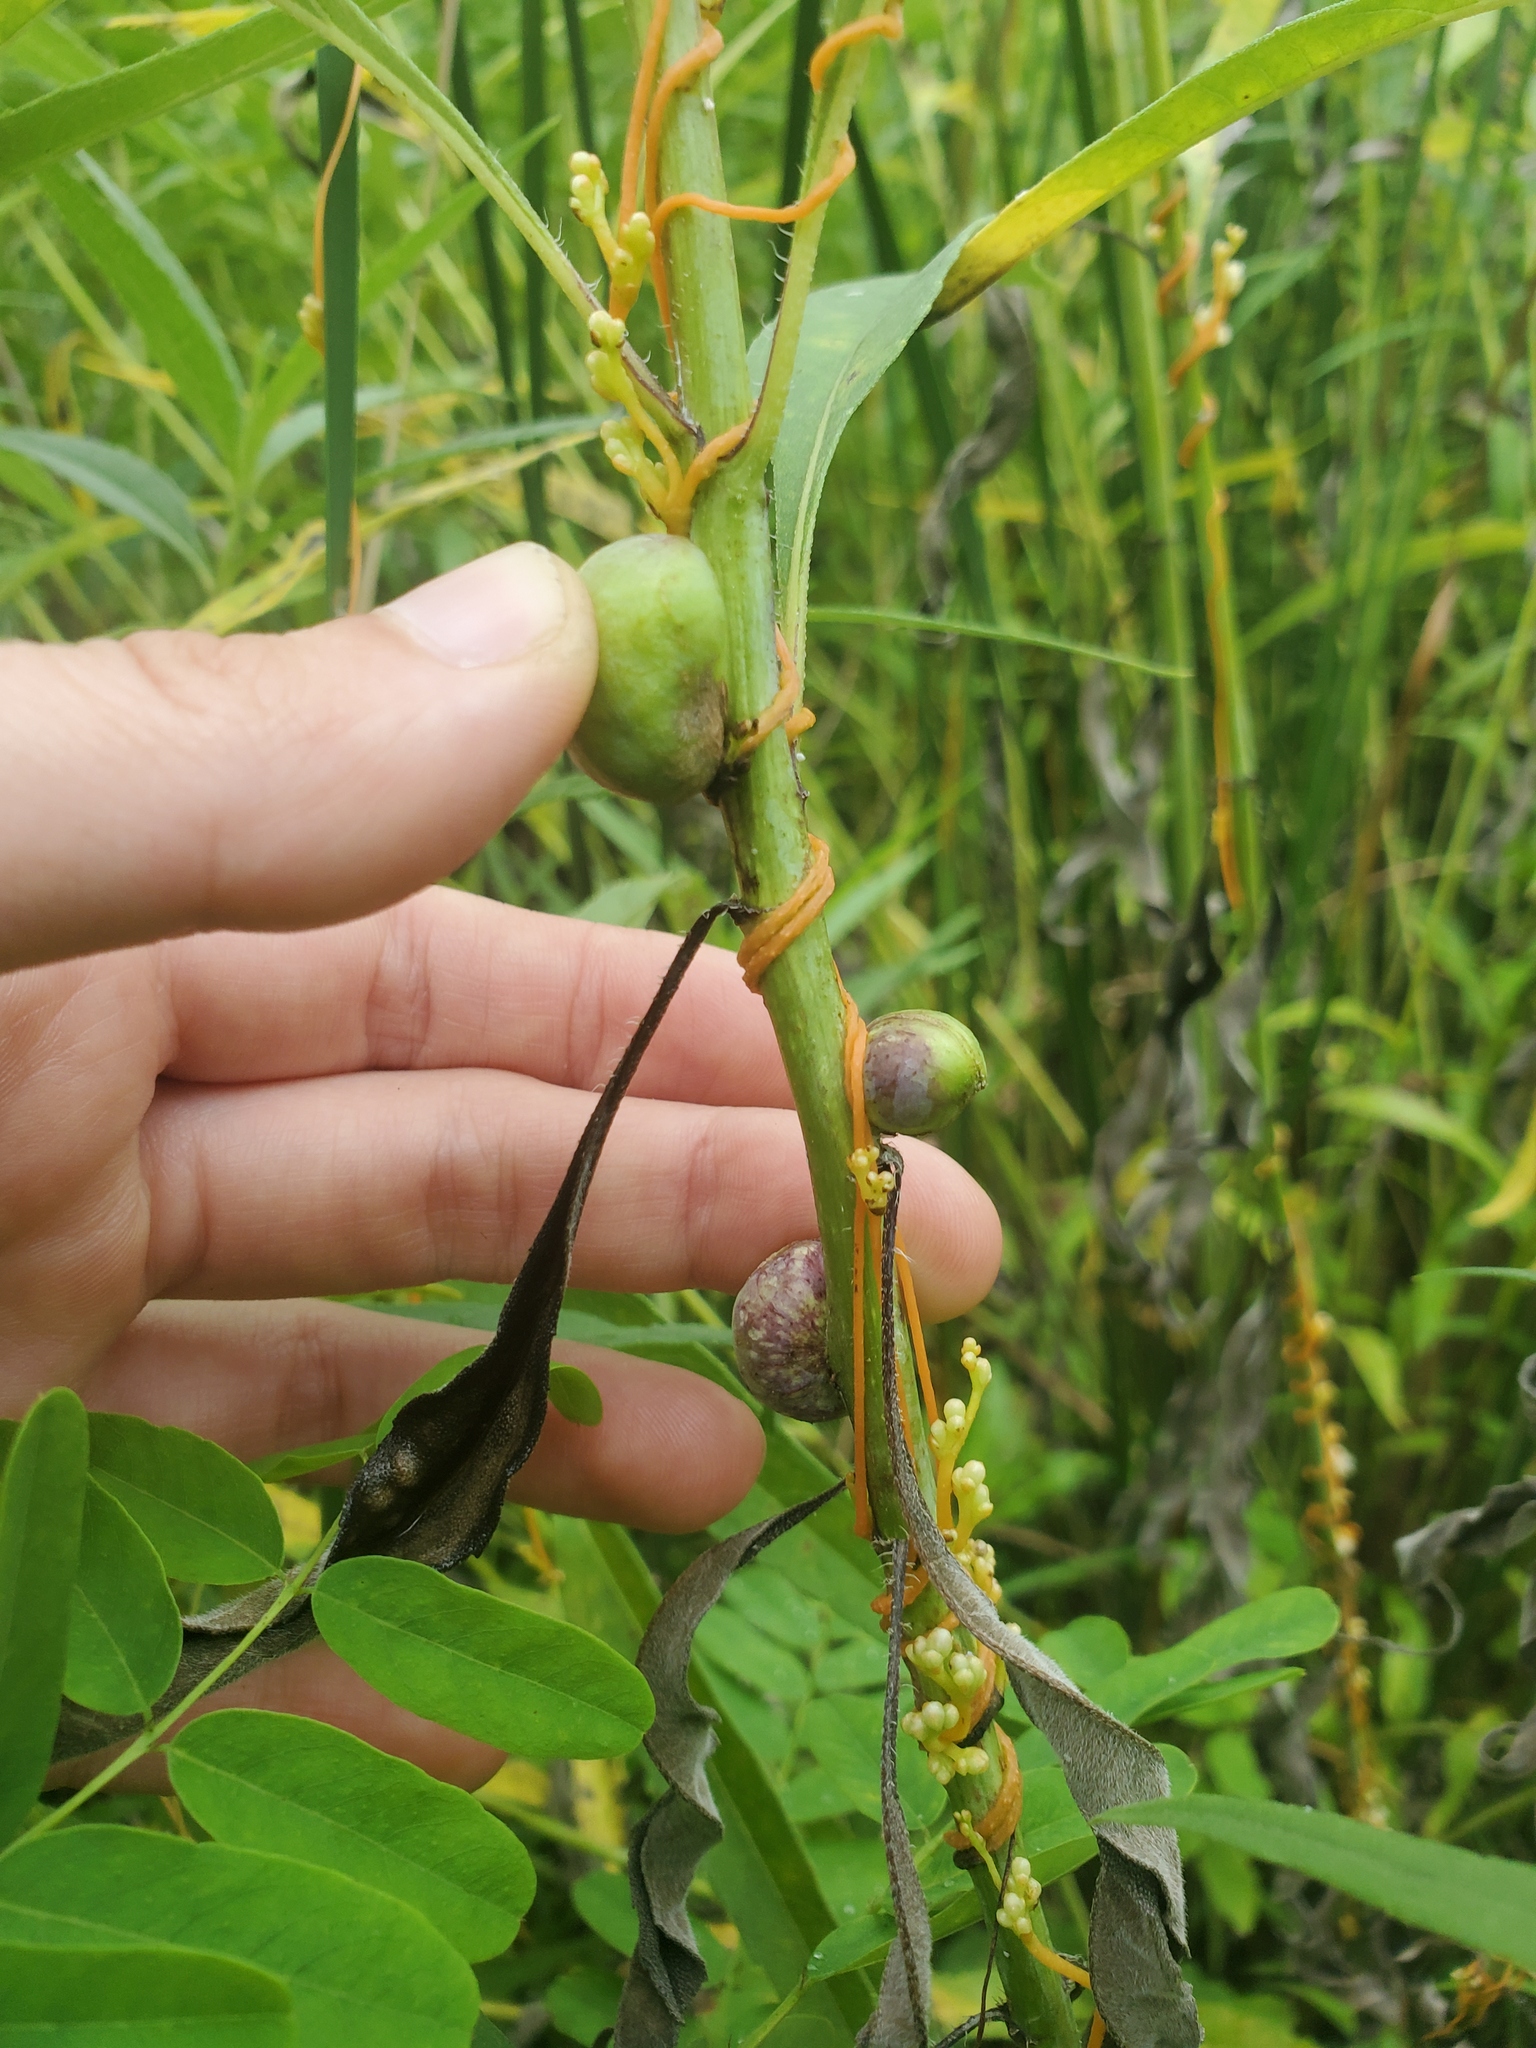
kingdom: Animalia
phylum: Arthropoda
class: Insecta
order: Diptera
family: Cecidomyiidae
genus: Asphondylia
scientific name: Asphondylia helianthiglobulus
